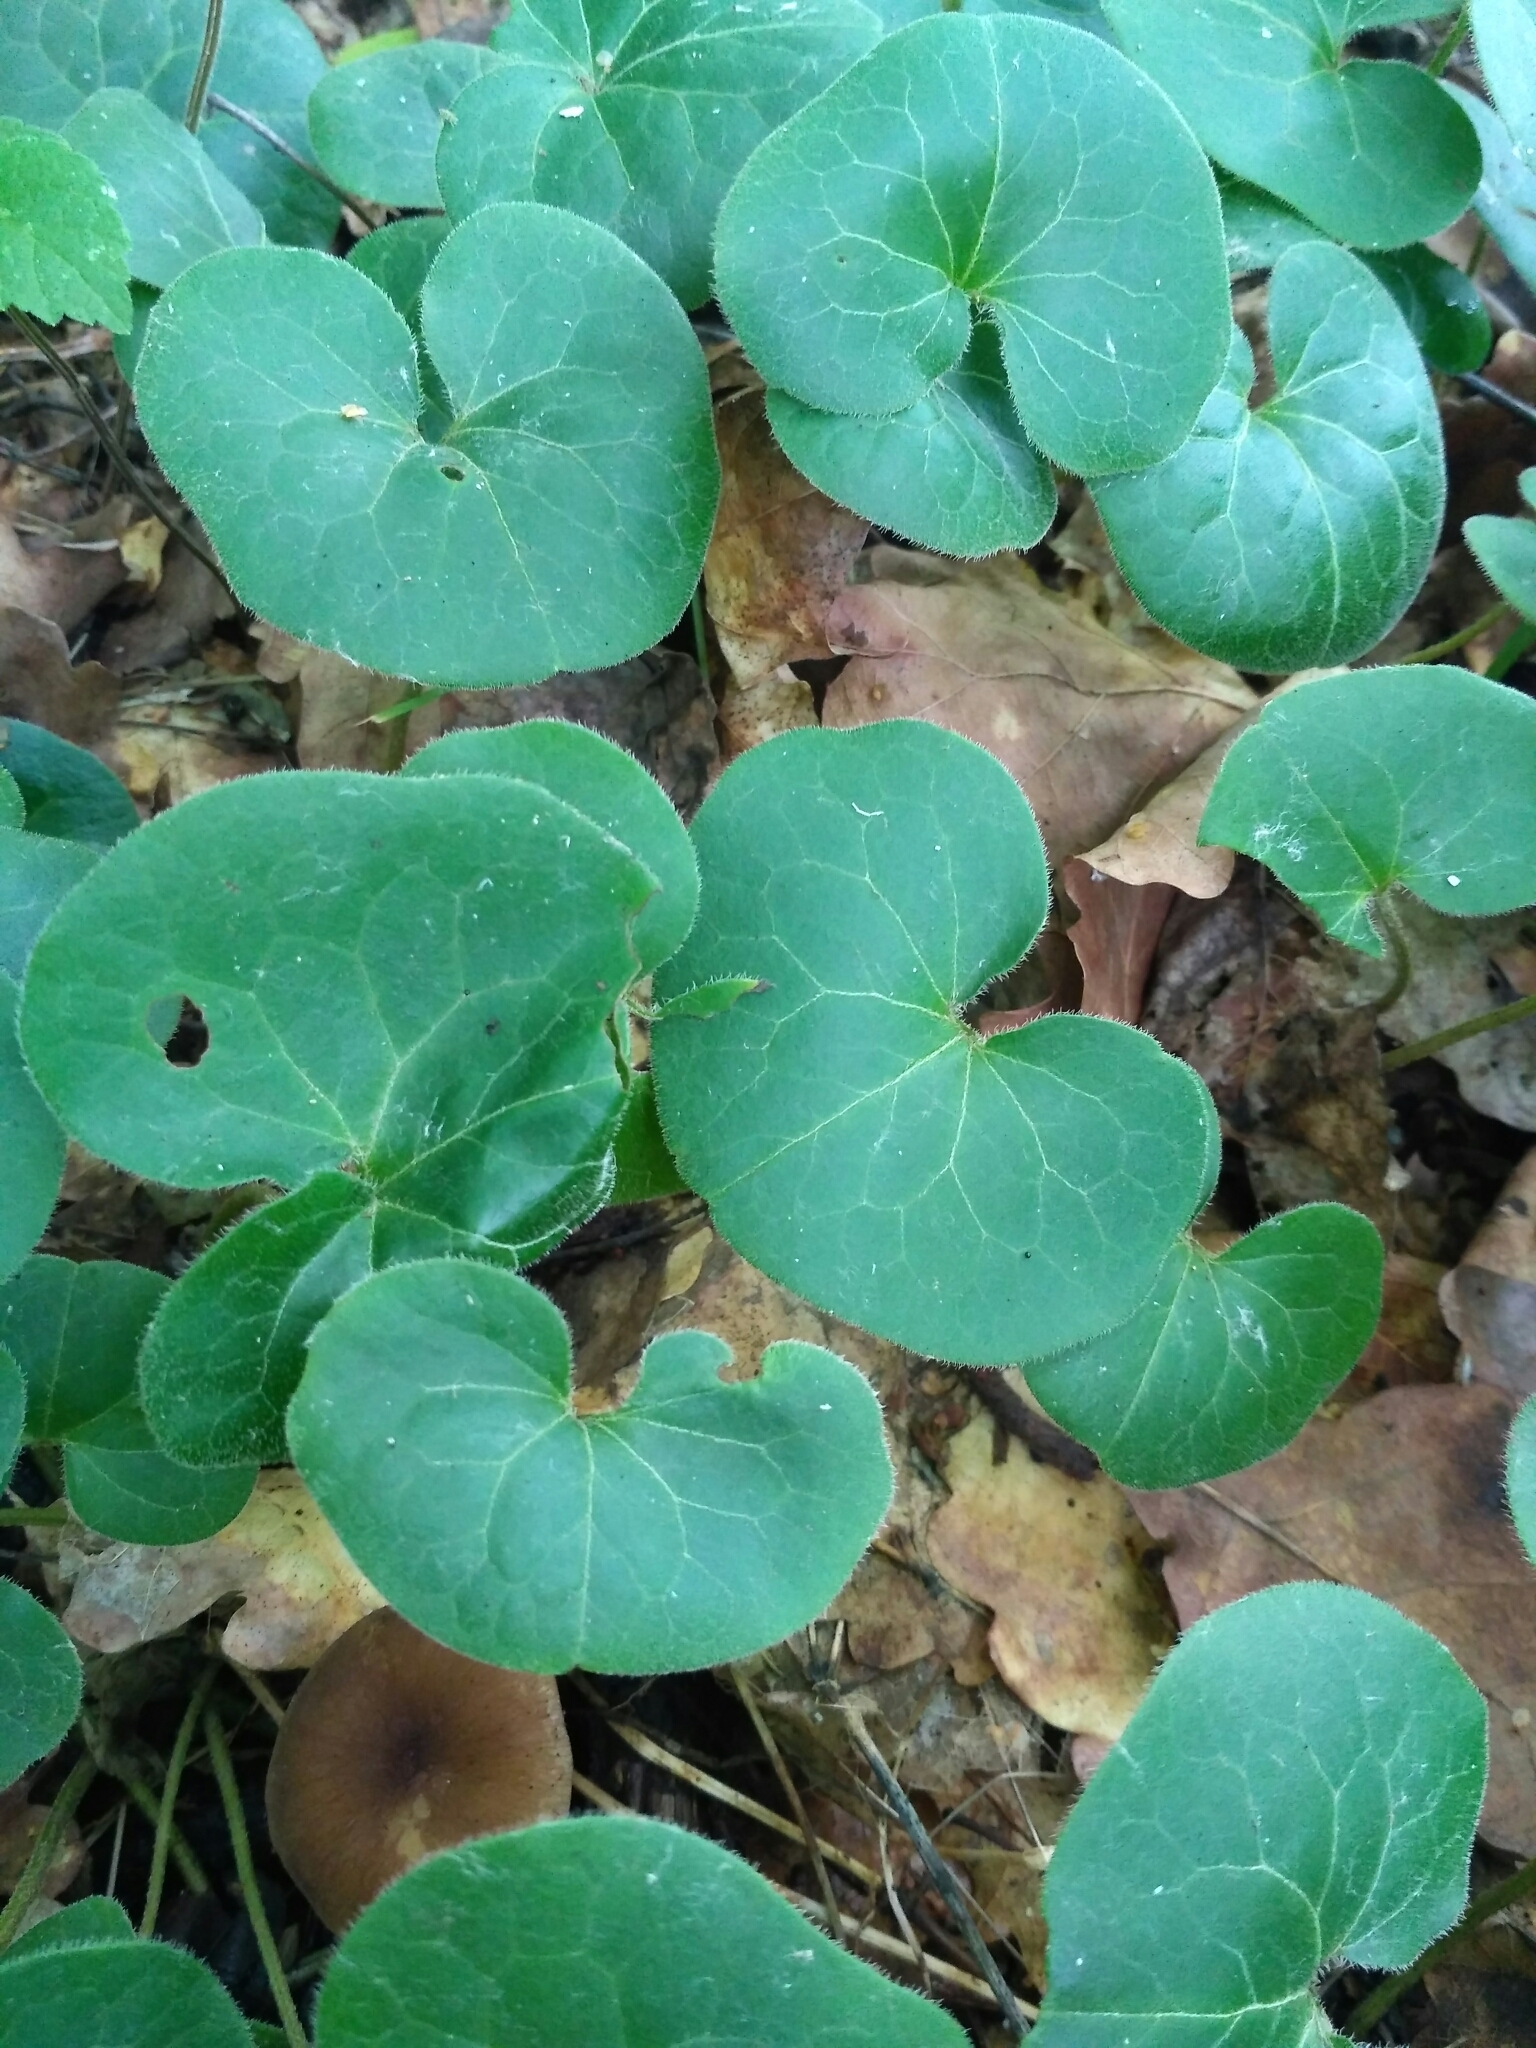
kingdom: Plantae
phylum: Tracheophyta
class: Magnoliopsida
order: Piperales
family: Aristolochiaceae
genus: Asarum
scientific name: Asarum europaeum
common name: Asarabacca
